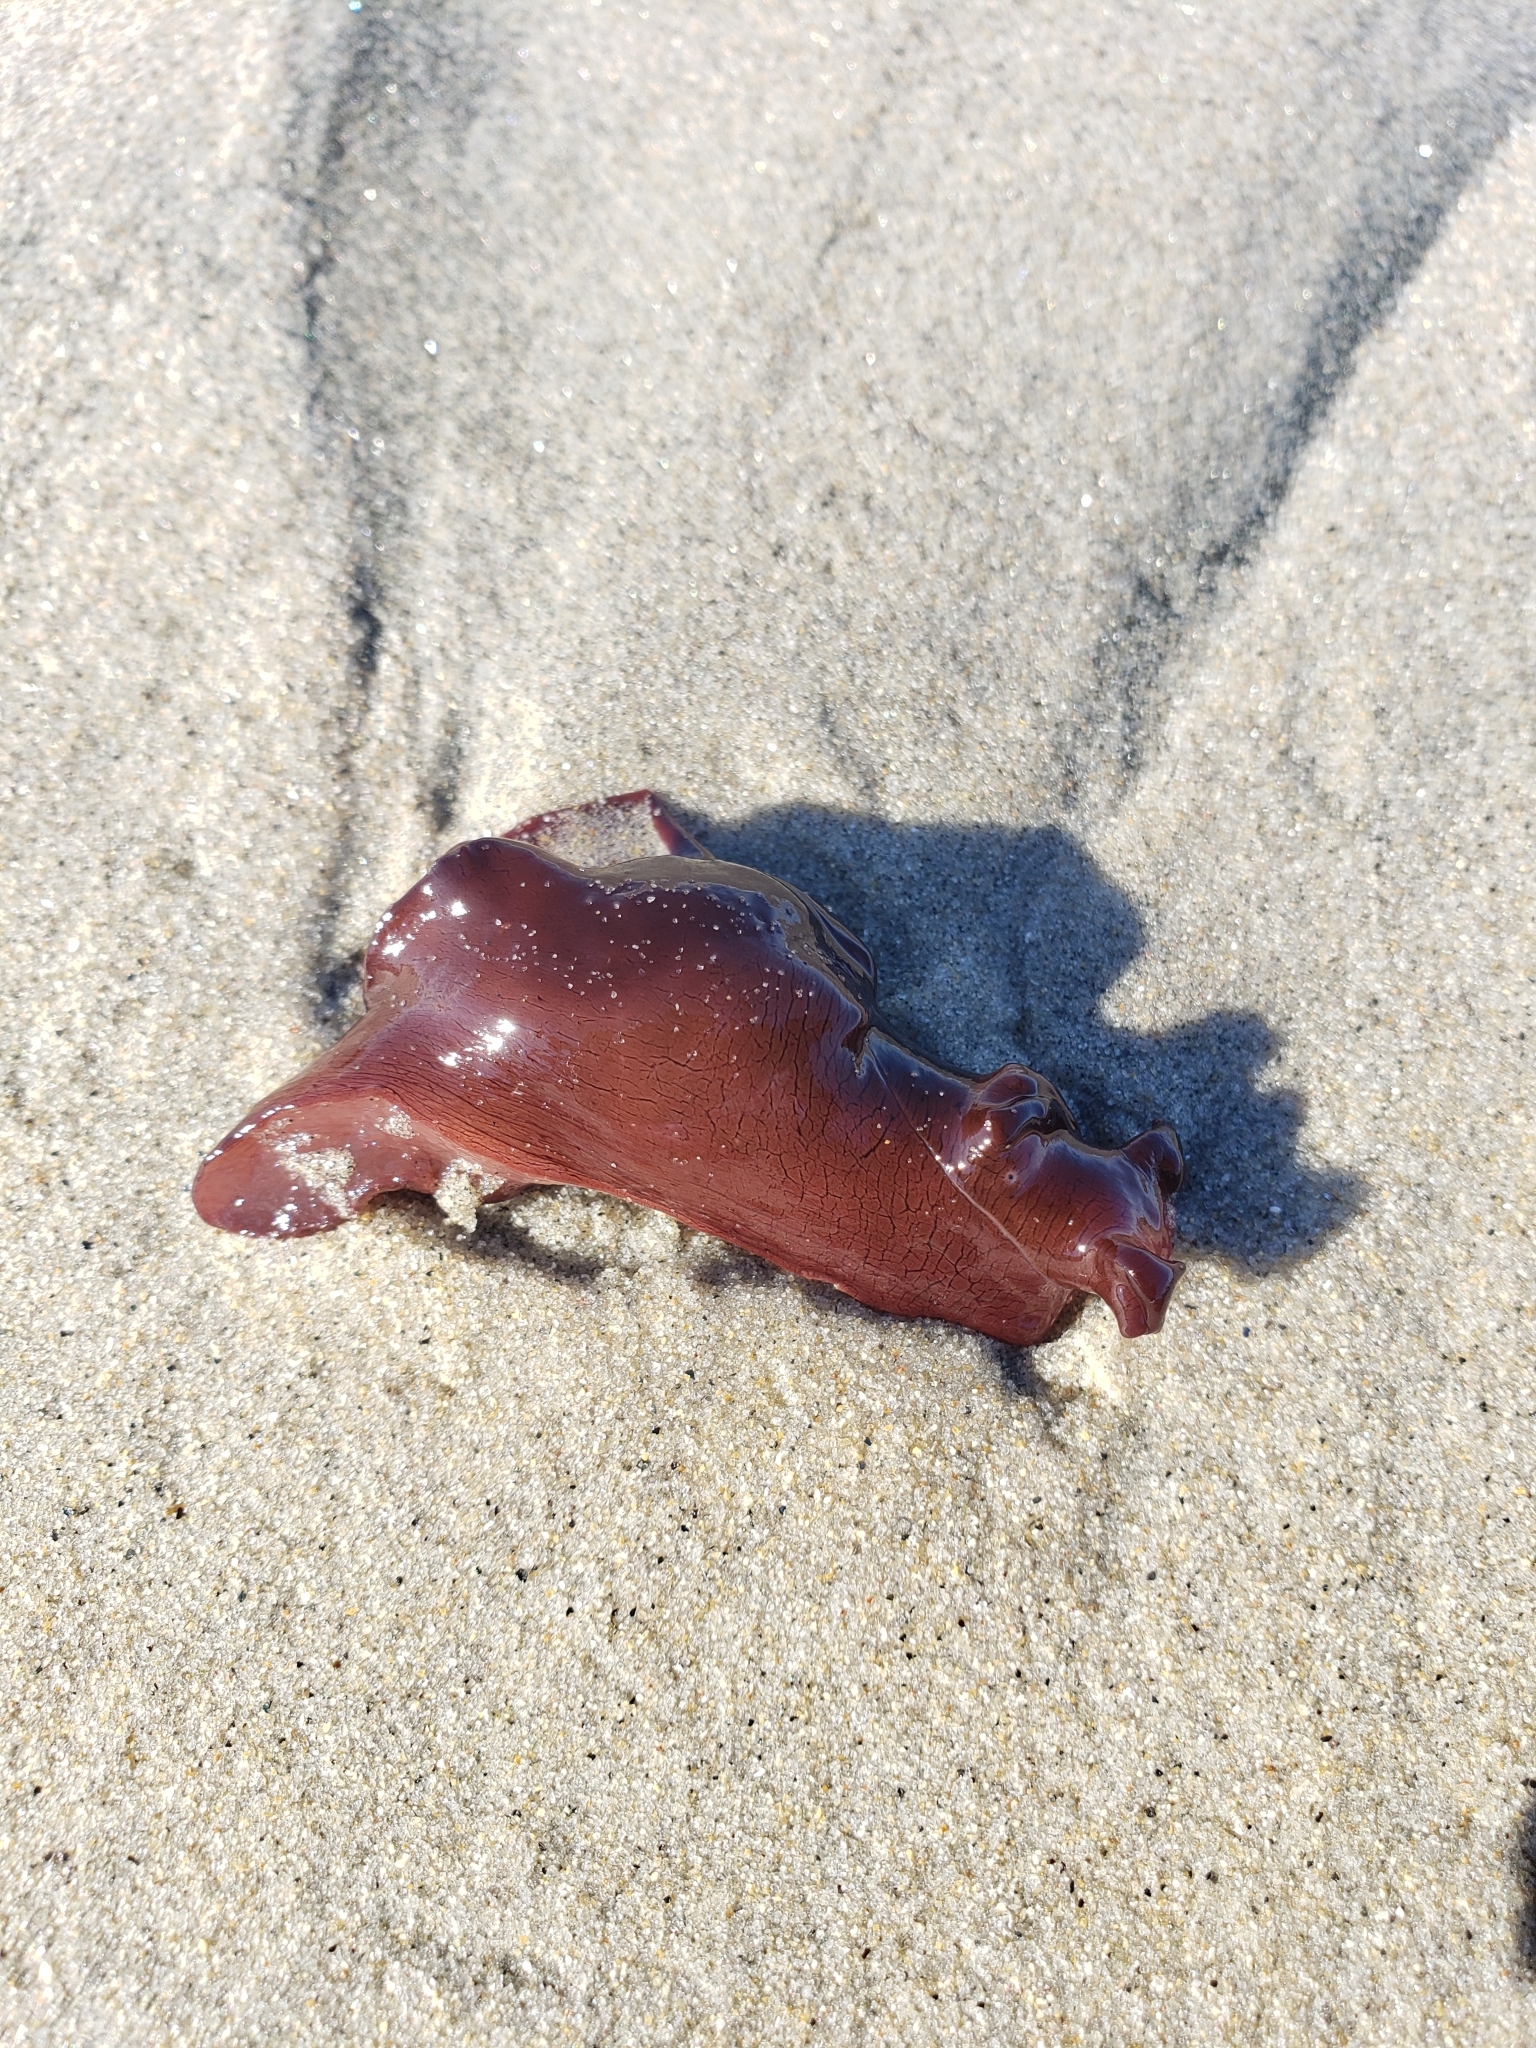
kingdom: Animalia
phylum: Mollusca
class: Gastropoda
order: Aplysiida
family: Aplysiidae
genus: Aplysia
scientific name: Aplysia californica
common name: California seahare
